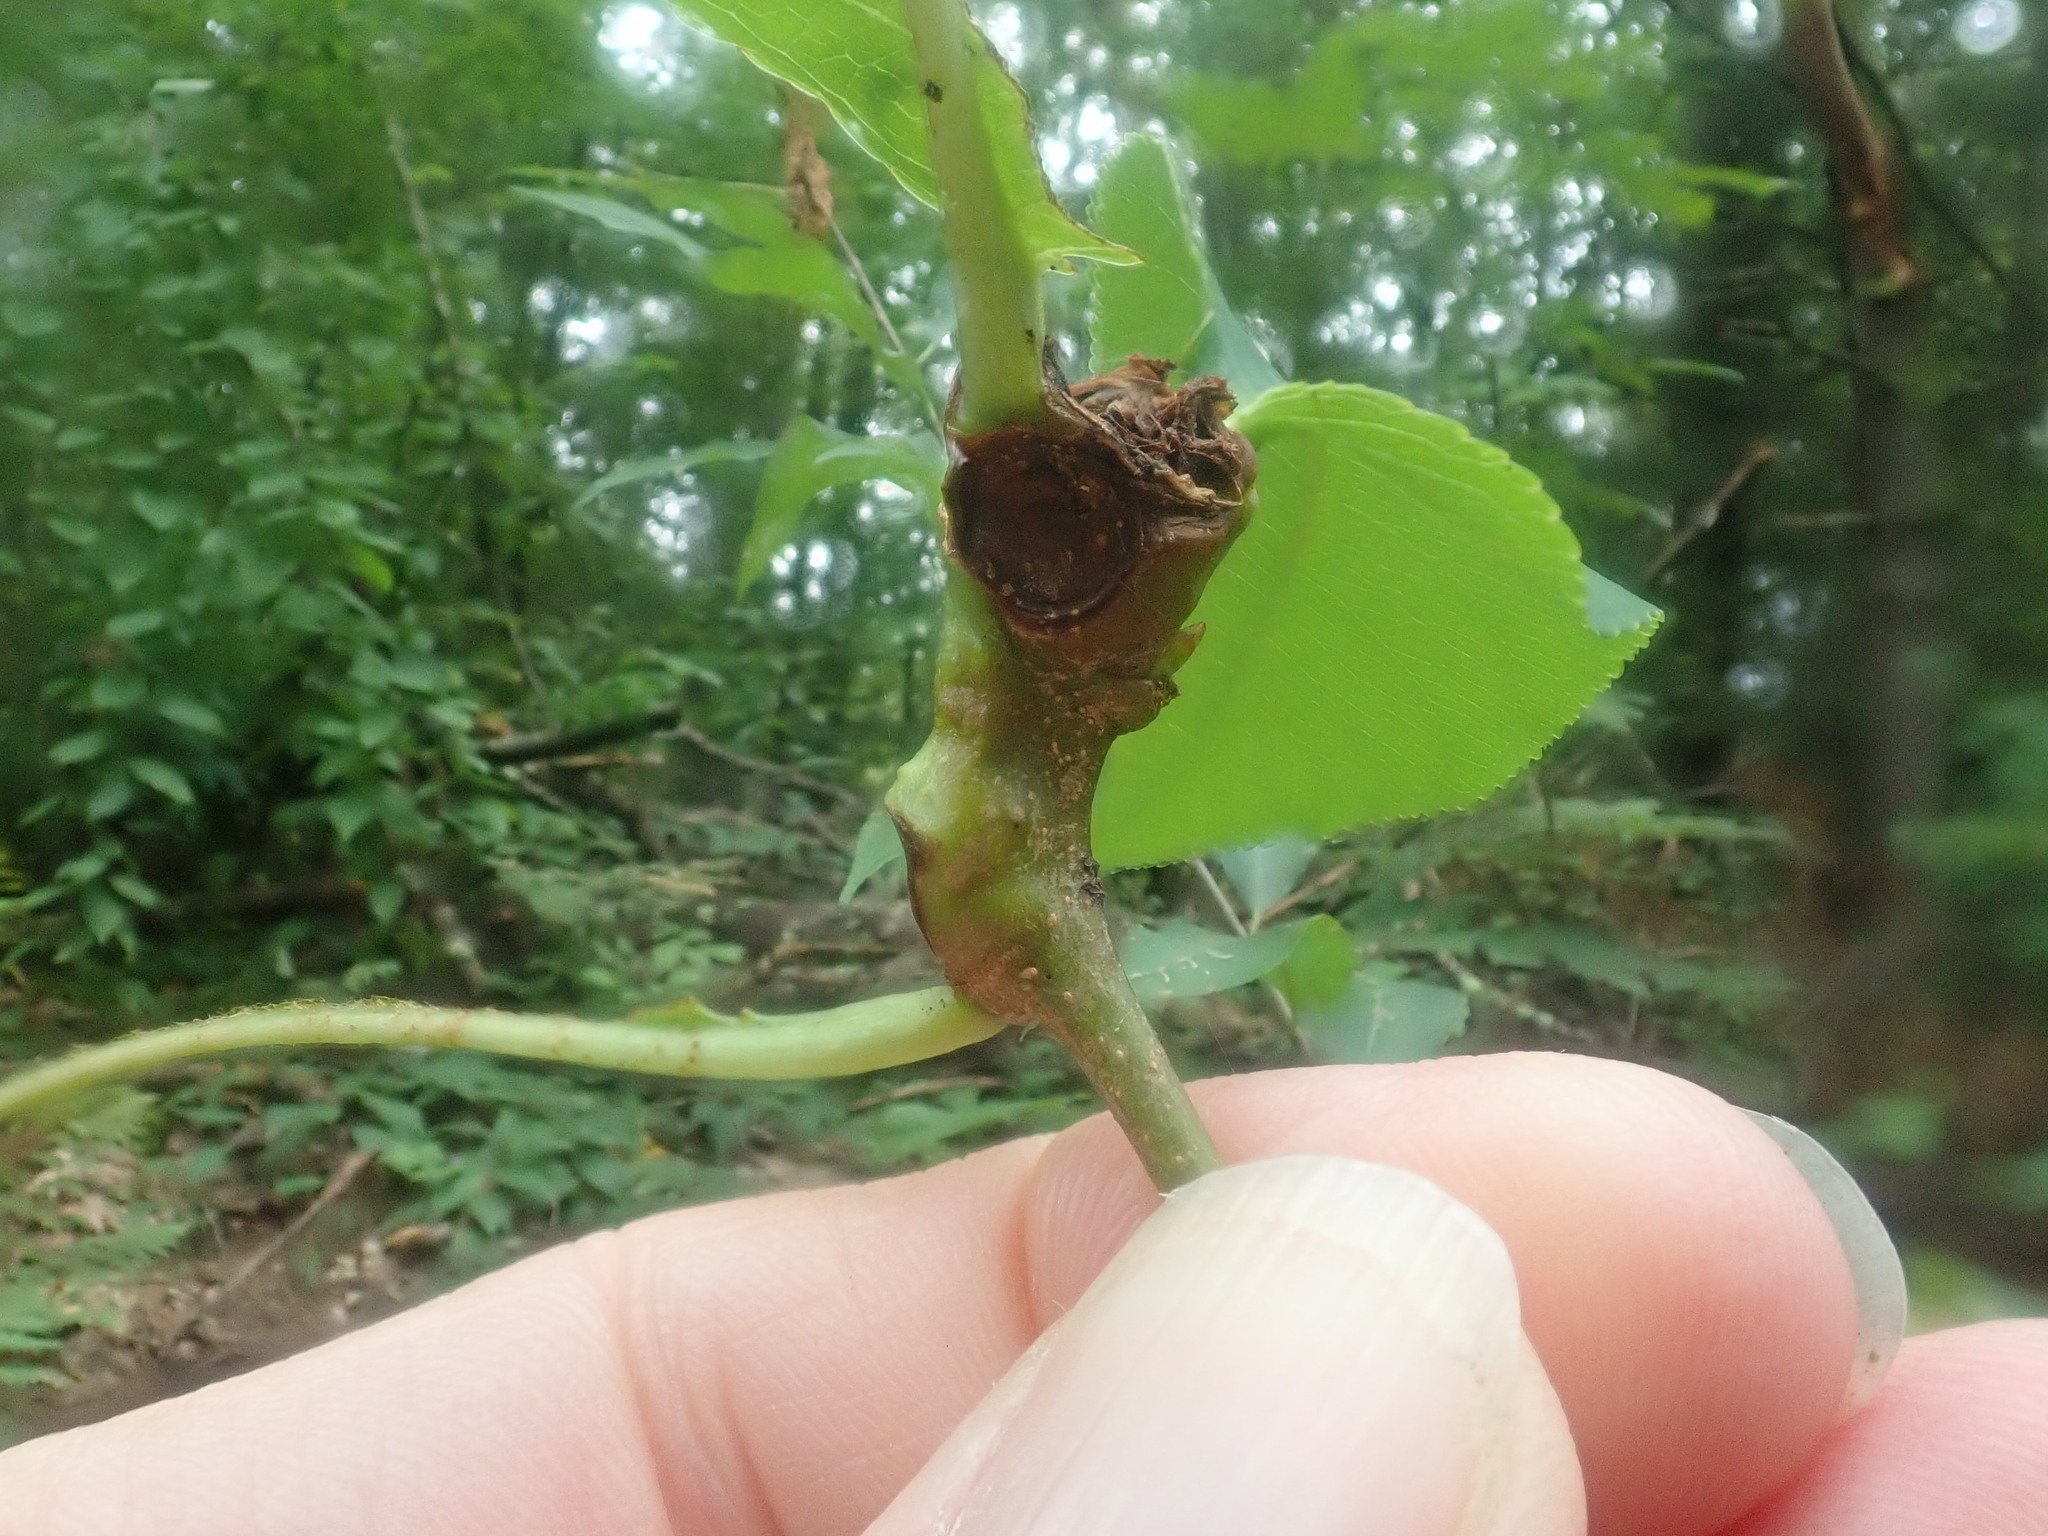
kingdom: Animalia
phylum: Arthropoda
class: Insecta
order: Diptera
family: Cecidomyiidae
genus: Contarinia
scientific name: Contarinia cerasiserotinae
